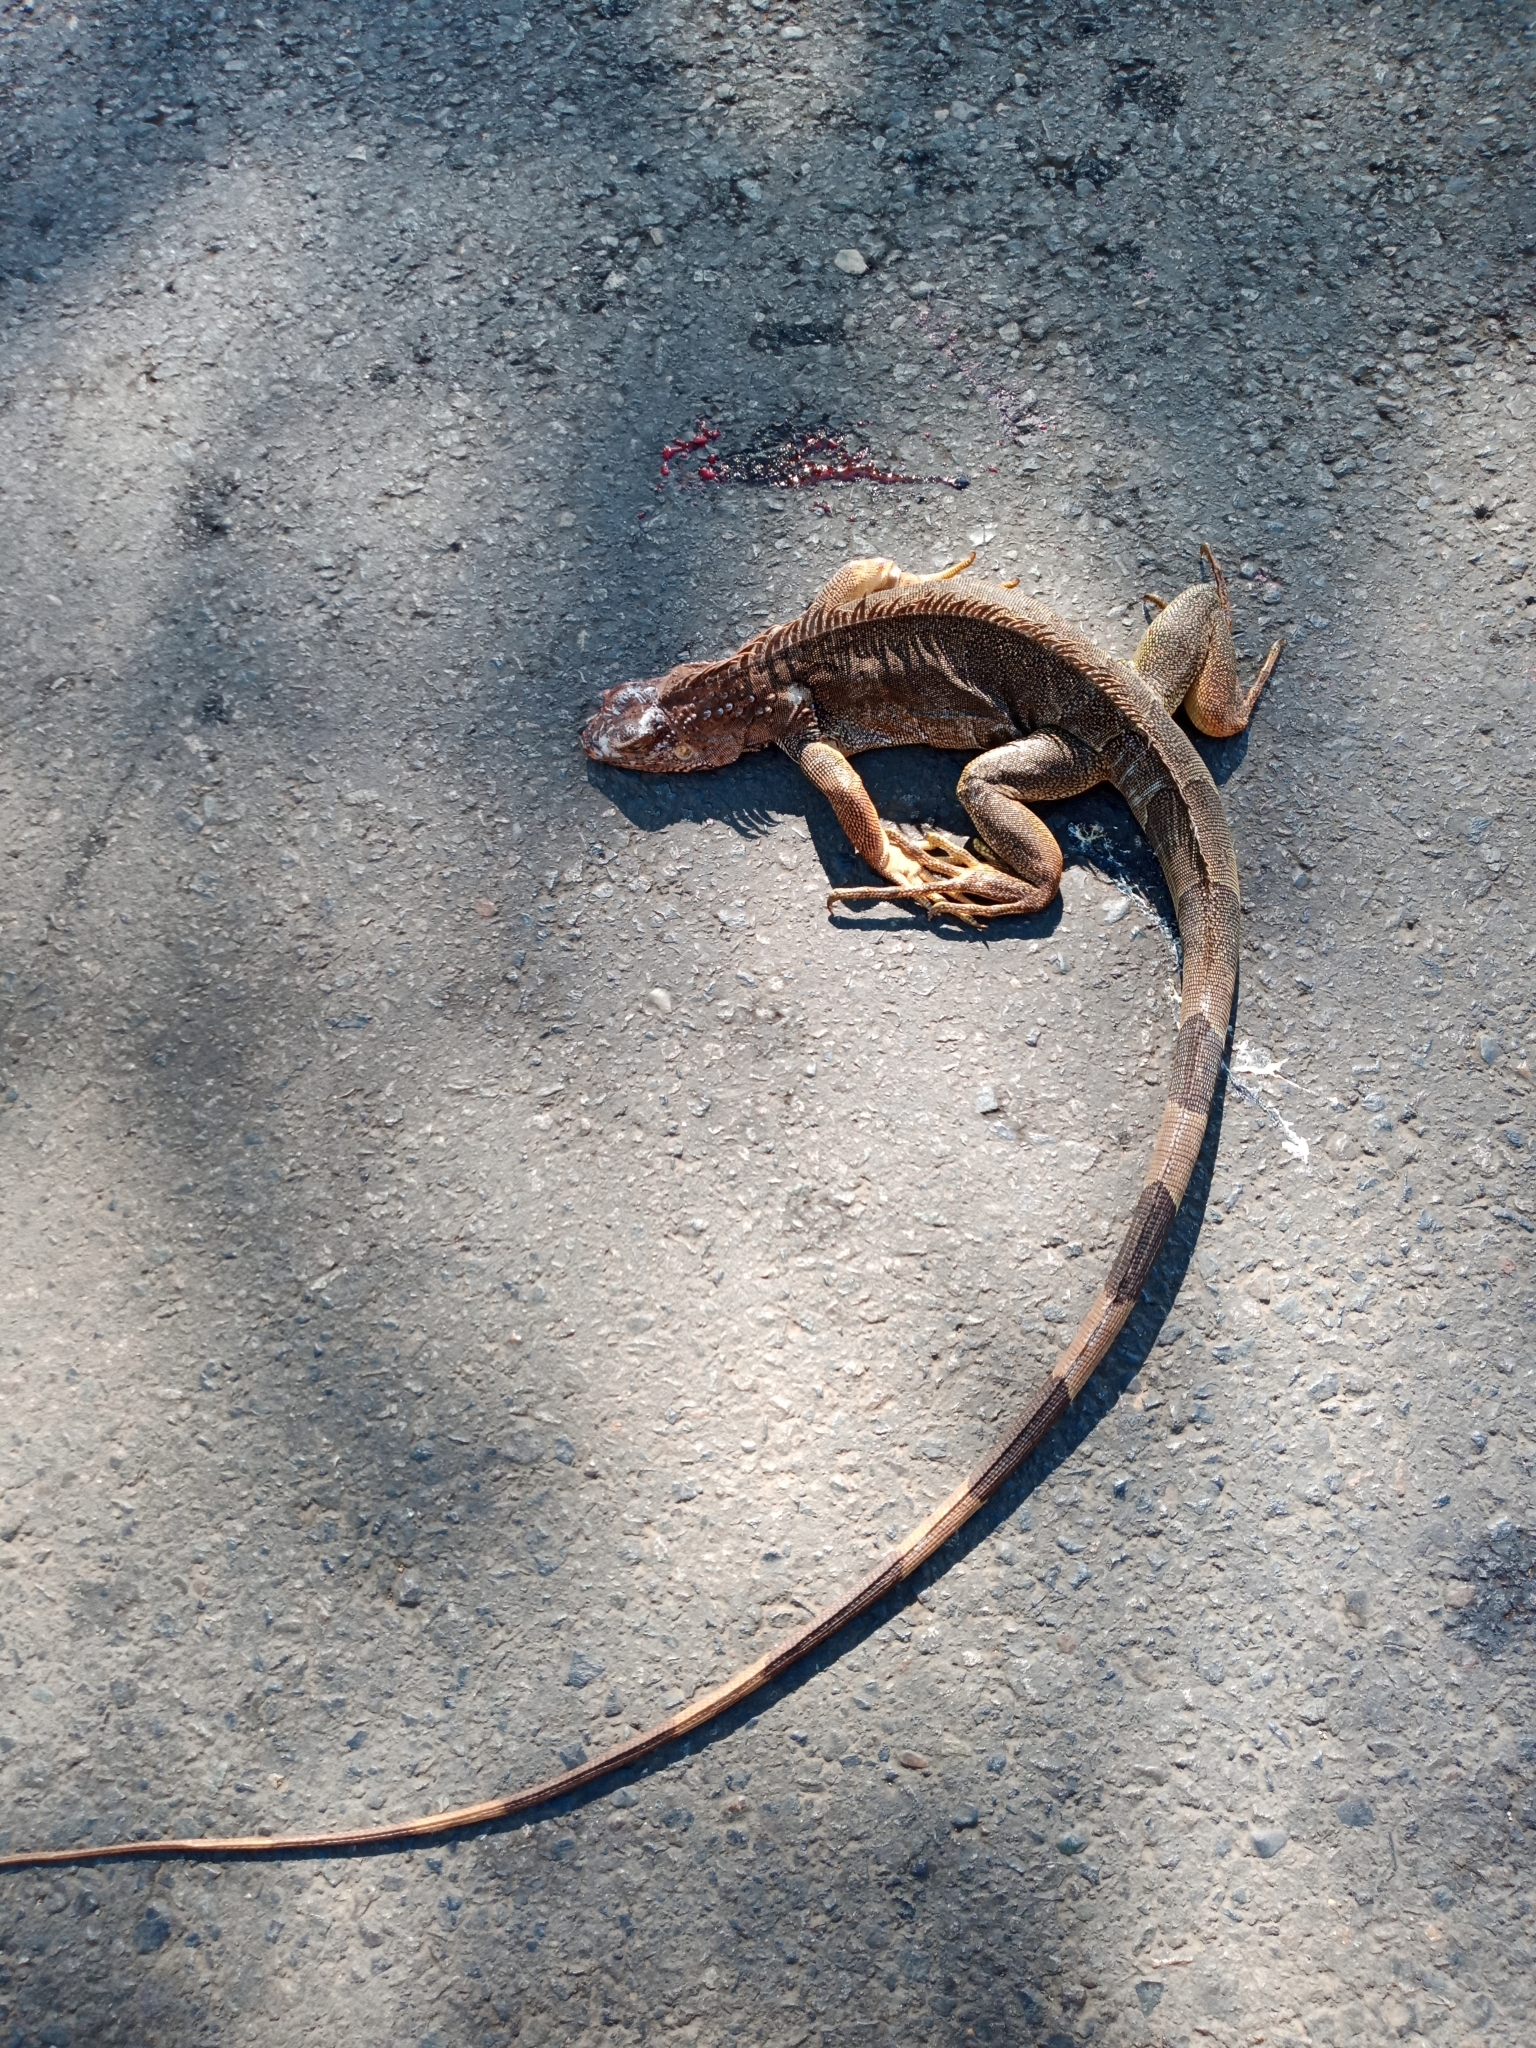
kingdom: Animalia
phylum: Chordata
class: Squamata
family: Iguanidae
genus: Iguana
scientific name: Iguana iguana
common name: Green iguana
